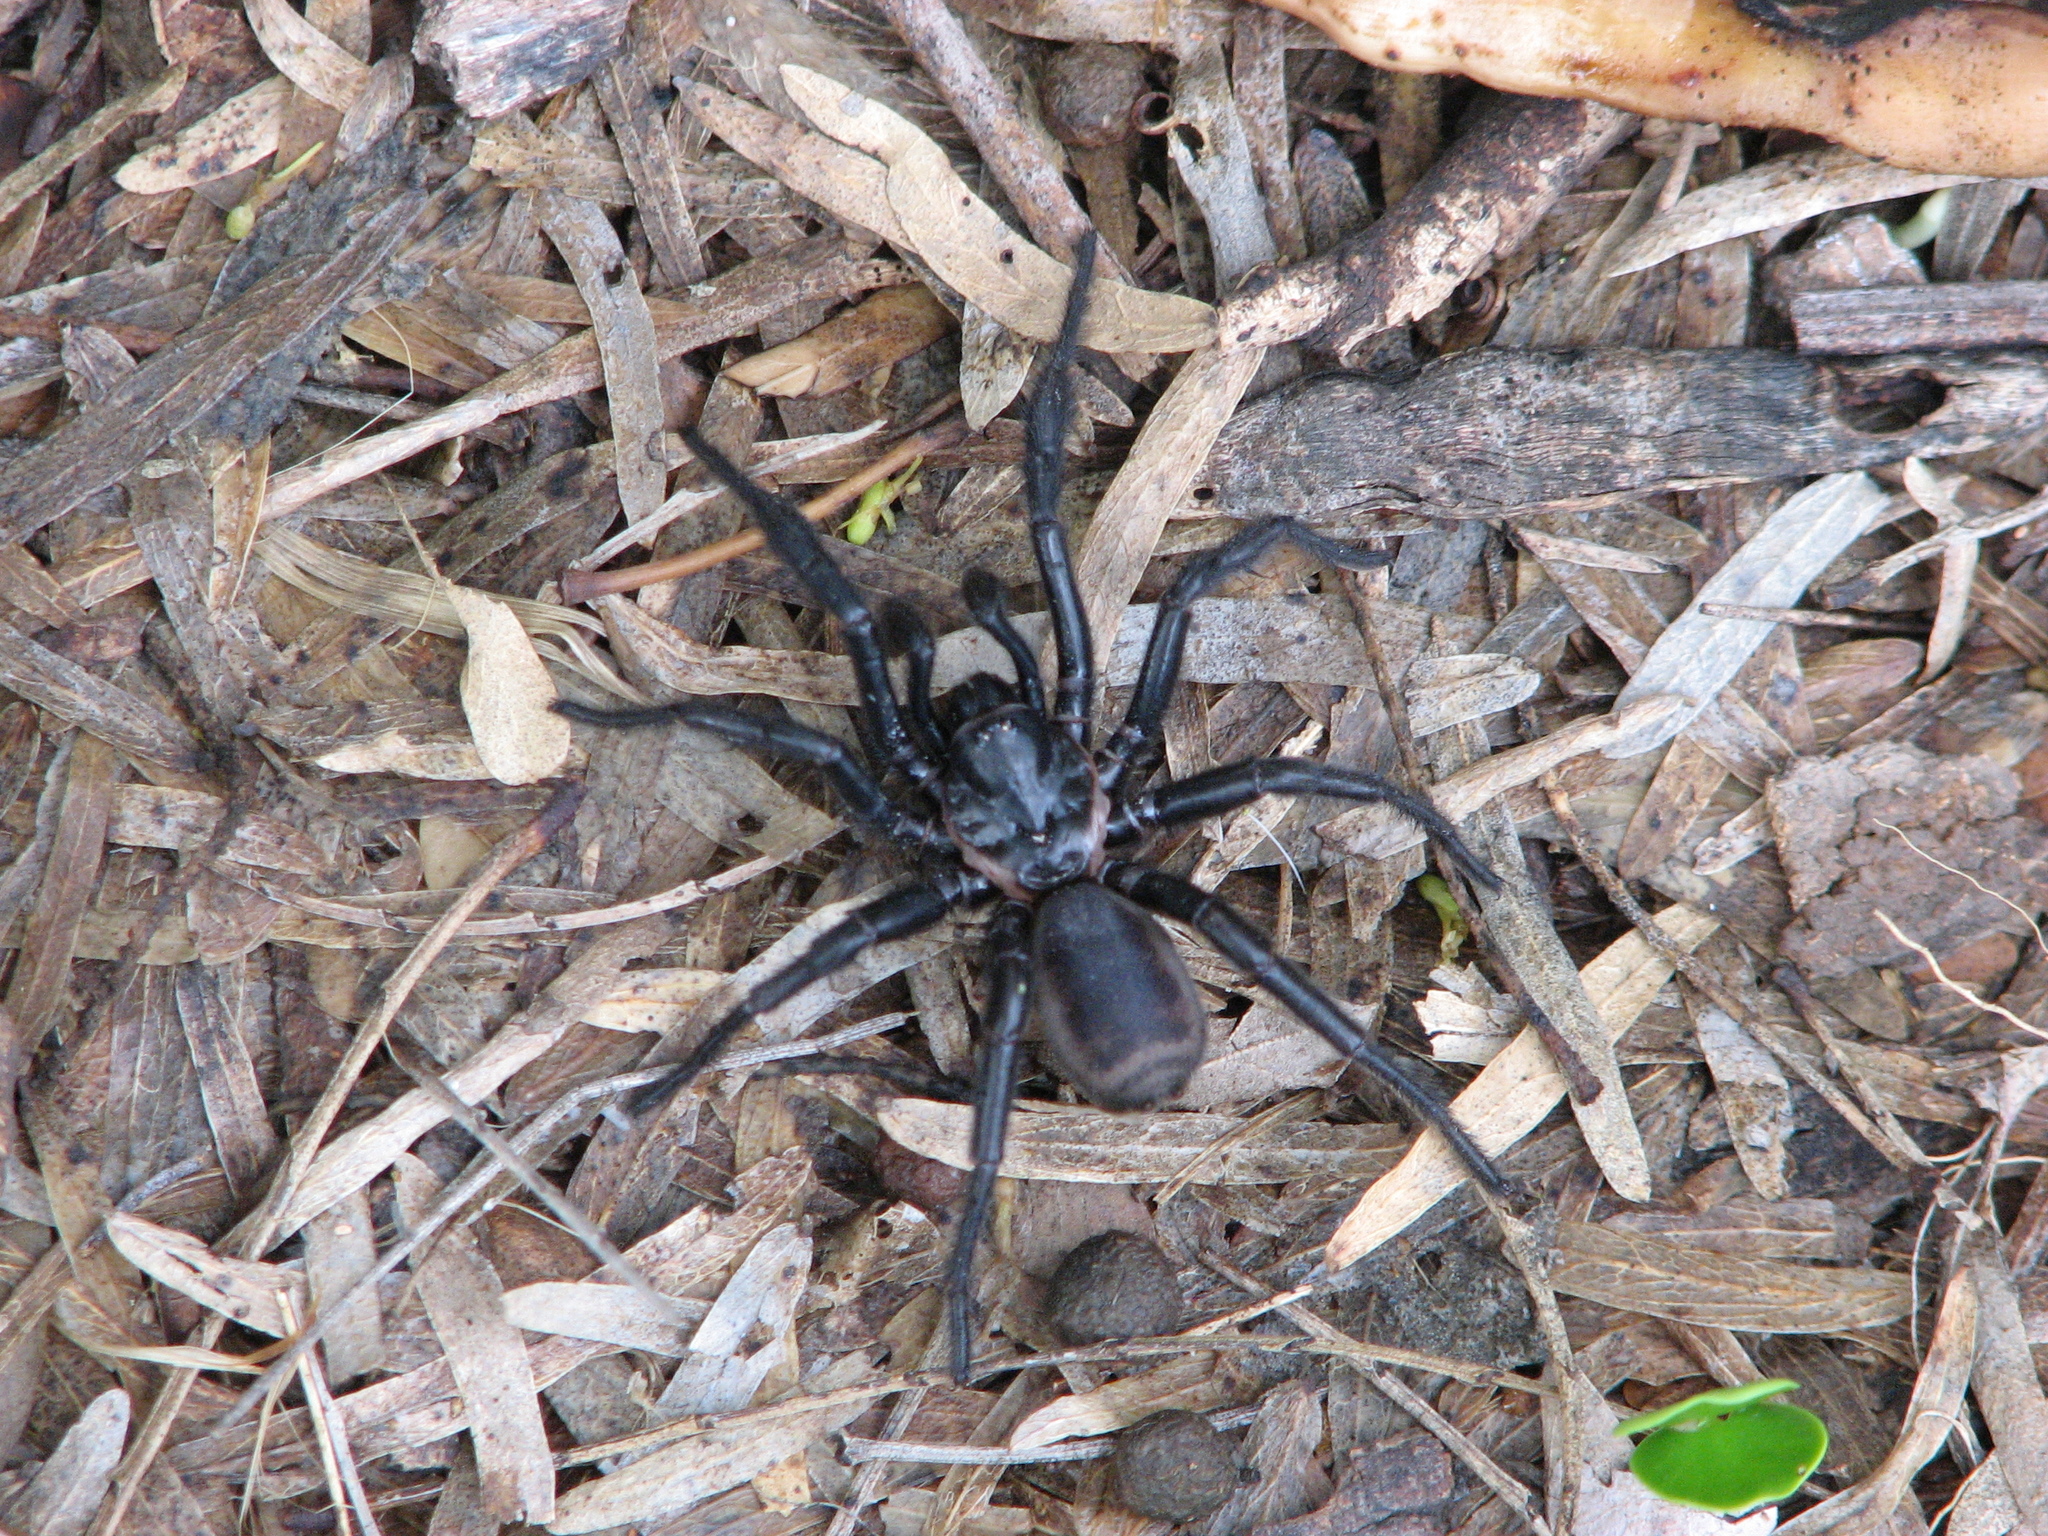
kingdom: Animalia
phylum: Arthropoda
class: Arachnida
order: Araneae
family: Euctenizidae
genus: Eucteniza
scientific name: Eucteniza relata
